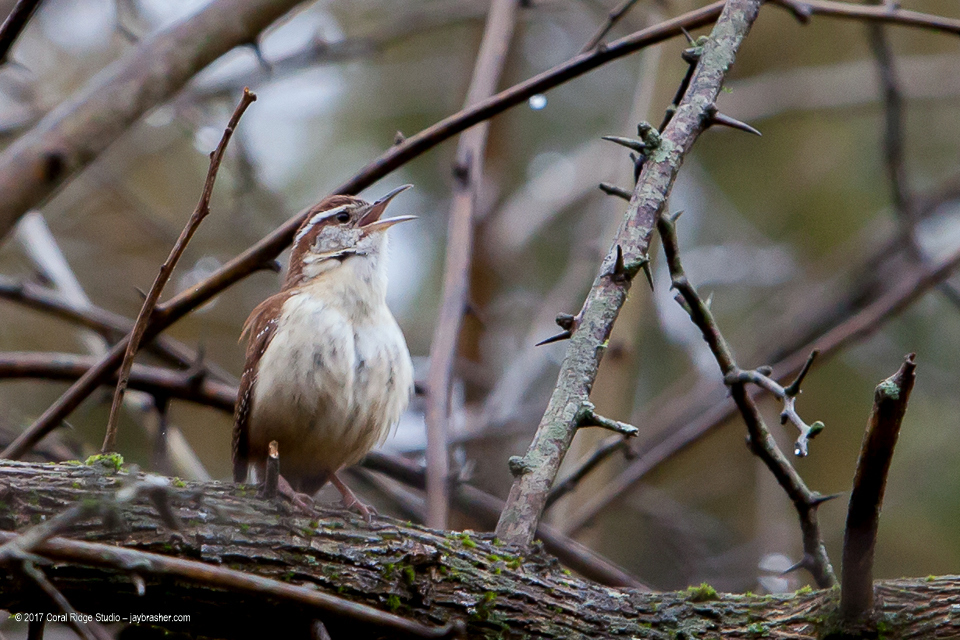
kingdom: Animalia
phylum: Chordata
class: Aves
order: Passeriformes
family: Troglodytidae
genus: Thryothorus
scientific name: Thryothorus ludovicianus
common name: Carolina wren
